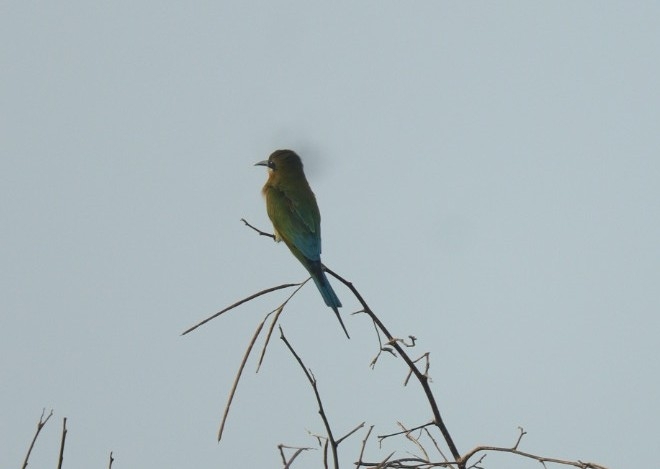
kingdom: Animalia
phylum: Chordata
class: Aves
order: Coraciiformes
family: Meropidae
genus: Merops
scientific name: Merops philippinus
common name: Blue-tailed bee-eater
